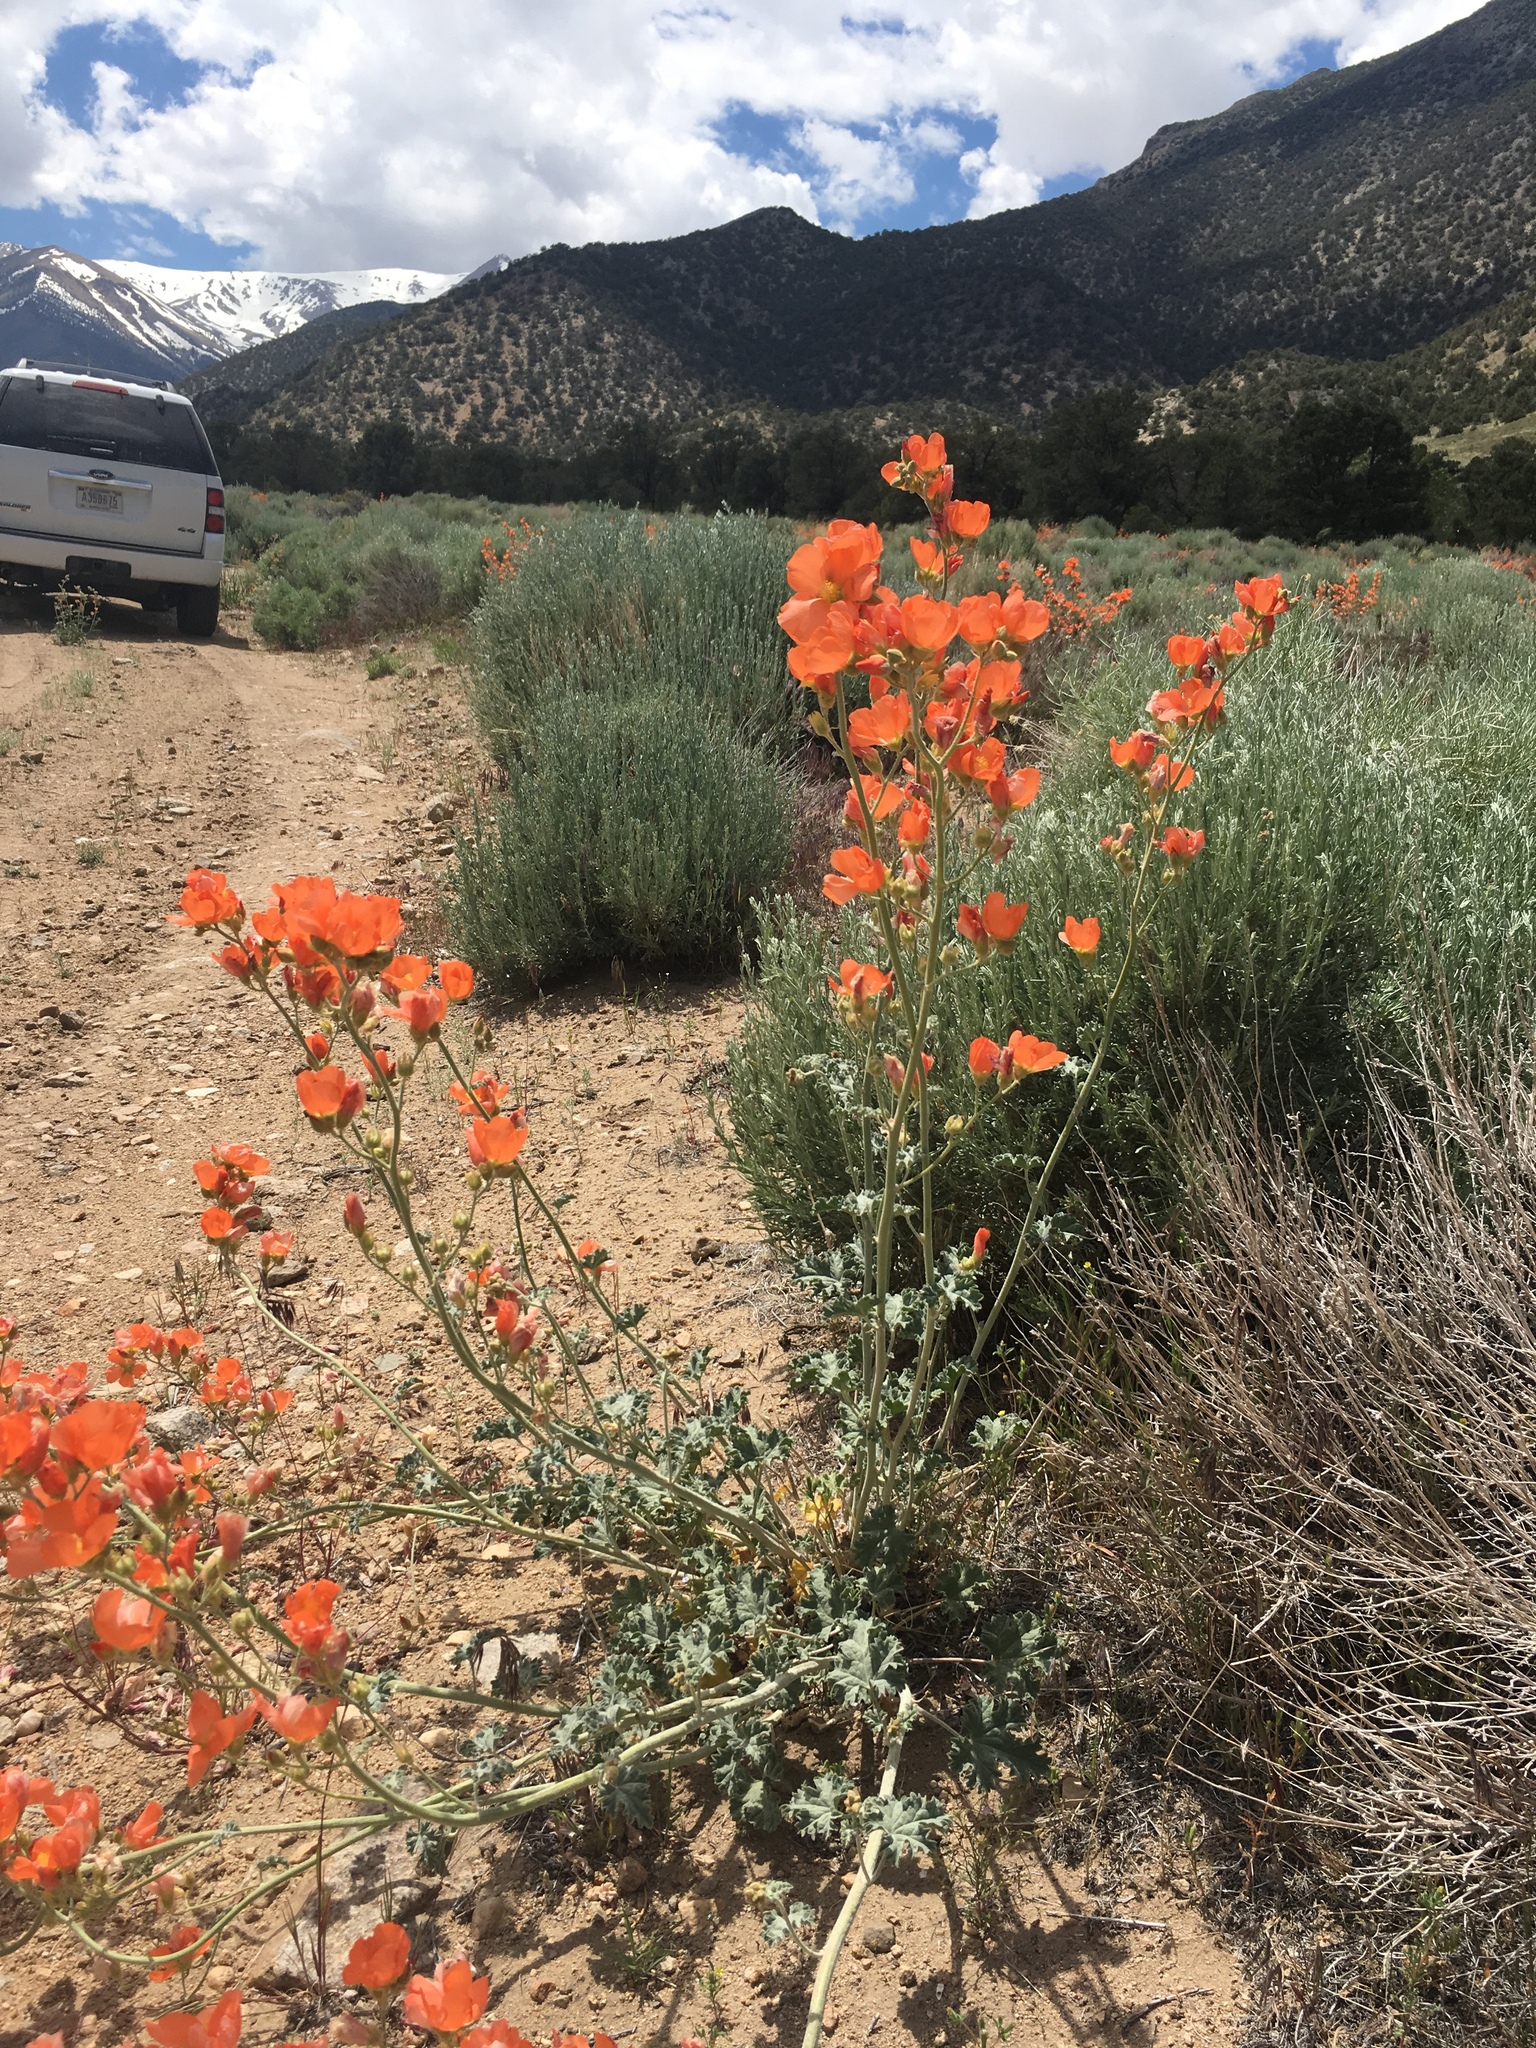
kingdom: Plantae
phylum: Tracheophyta
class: Magnoliopsida
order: Malvales
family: Malvaceae
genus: Sphaeralcea
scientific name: Sphaeralcea ambigua
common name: Apricot globe-mallow
